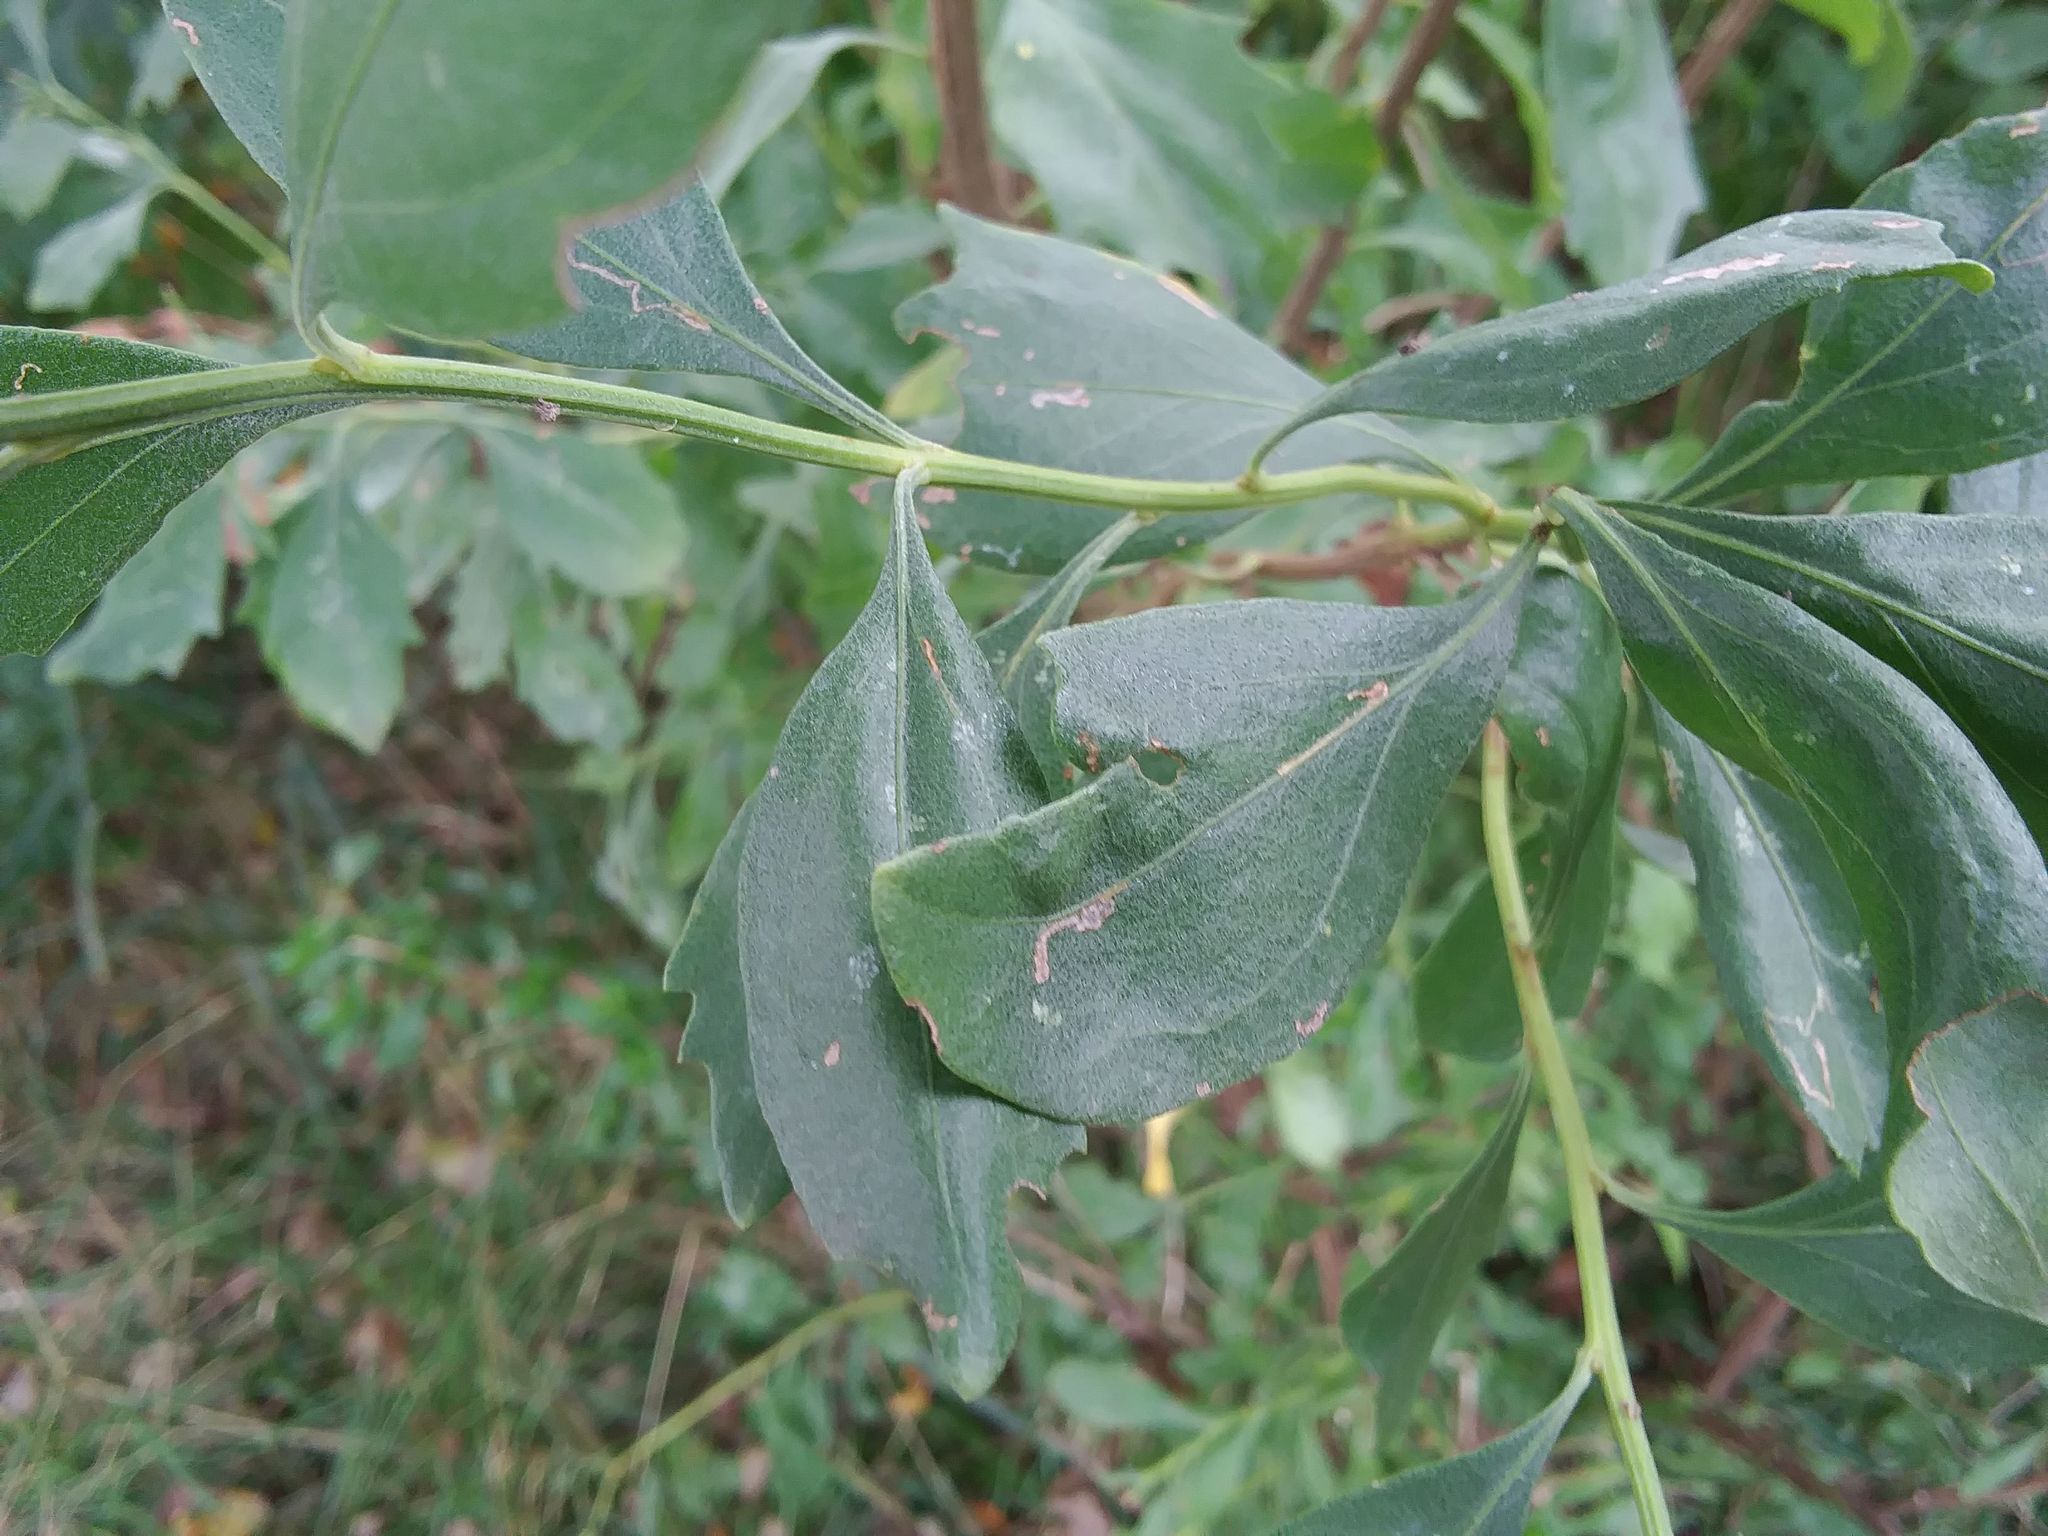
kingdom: Plantae
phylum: Tracheophyta
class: Magnoliopsida
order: Asterales
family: Asteraceae
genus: Baccharis
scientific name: Baccharis halimifolia
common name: Eastern baccharis
